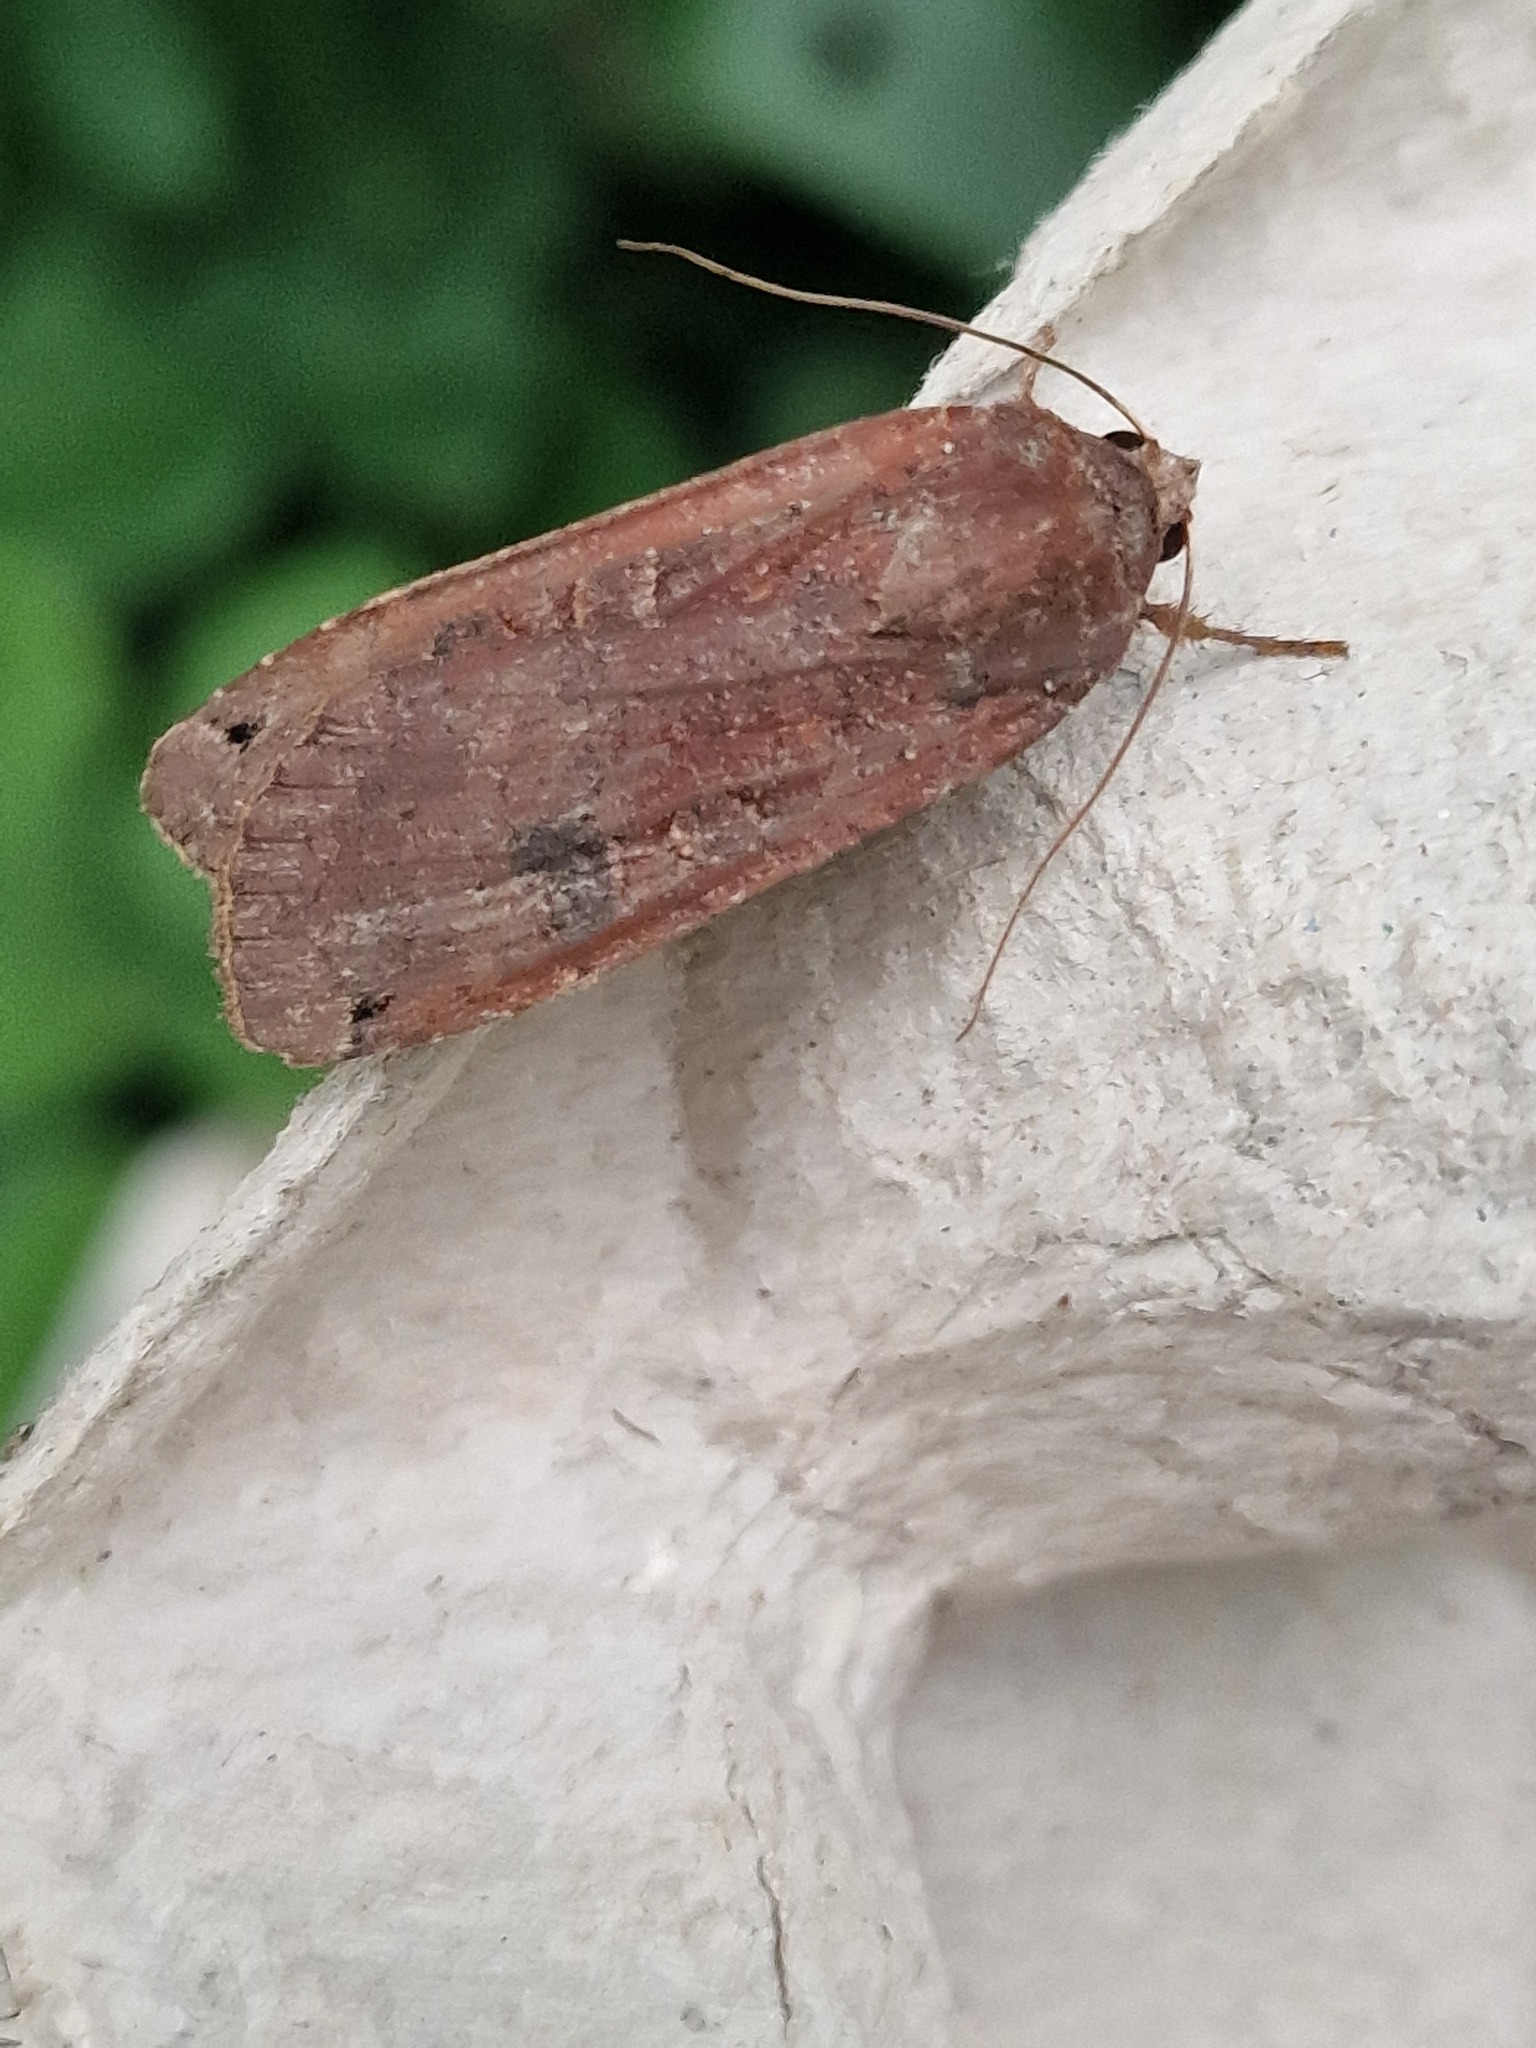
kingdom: Animalia
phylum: Arthropoda
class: Insecta
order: Lepidoptera
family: Noctuidae
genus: Noctua
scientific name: Noctua pronuba
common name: Large yellow underwing
